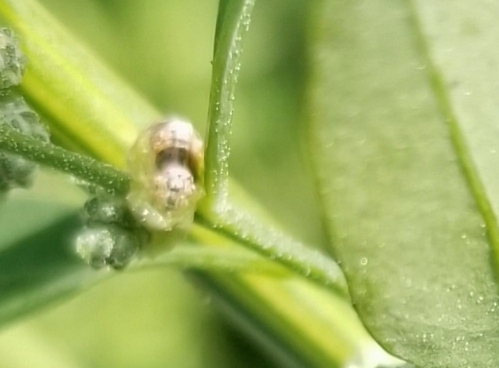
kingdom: Animalia
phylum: Arthropoda
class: Insecta
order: Diptera
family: Syrphidae
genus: Eupeodes
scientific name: Eupeodes pomus
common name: Short-tailed aphideater
